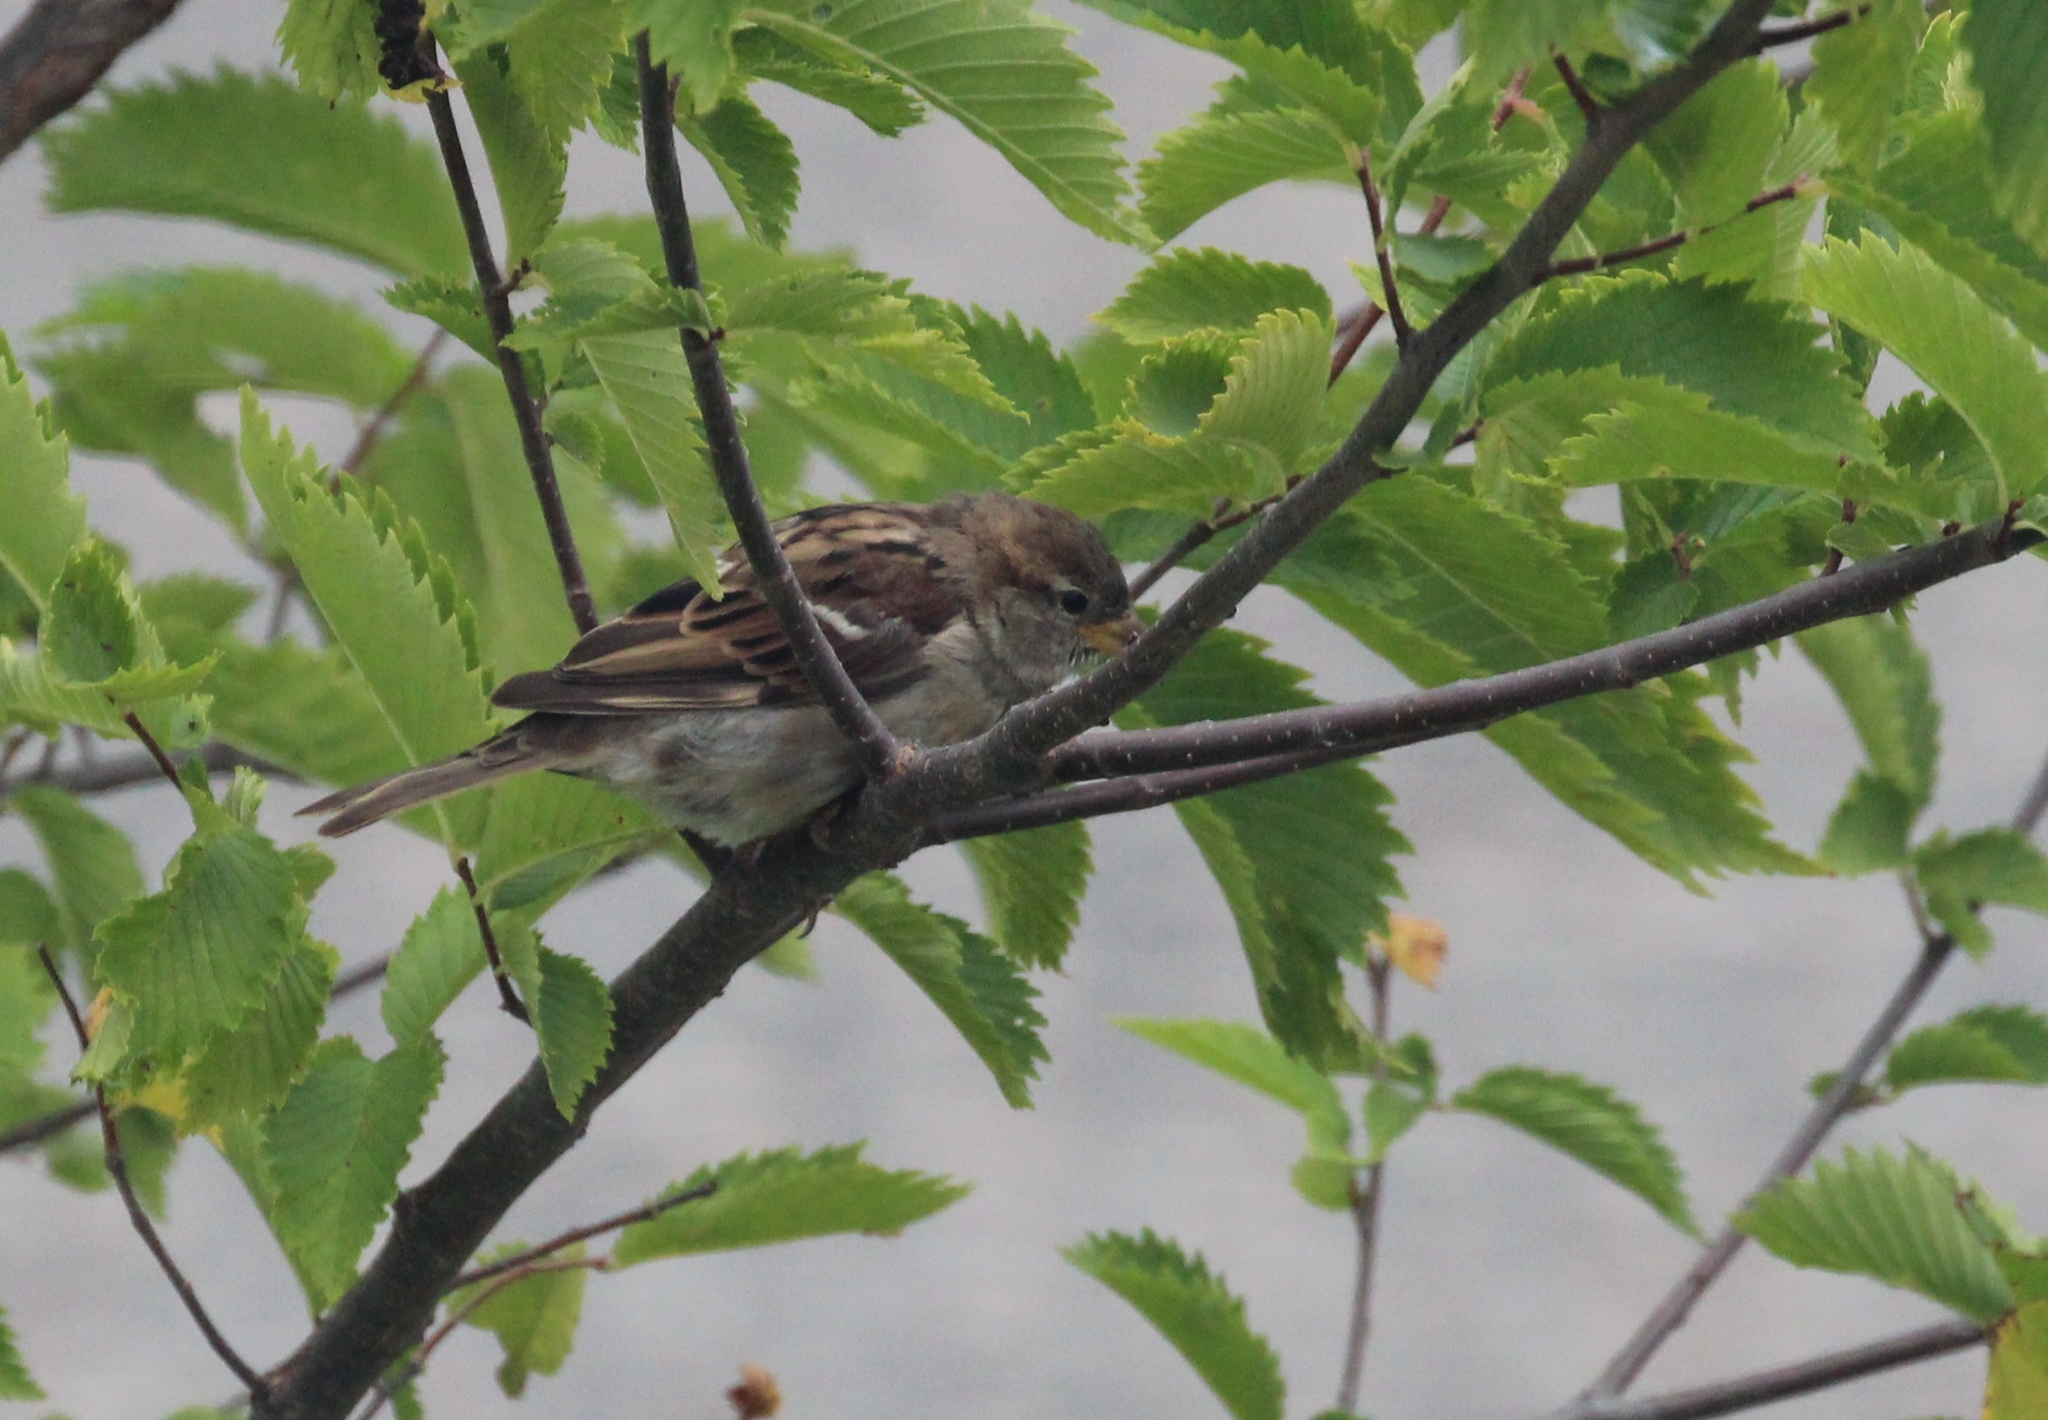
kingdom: Animalia
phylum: Chordata
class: Aves
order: Passeriformes
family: Passeridae
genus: Passer
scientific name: Passer domesticus
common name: House sparrow
